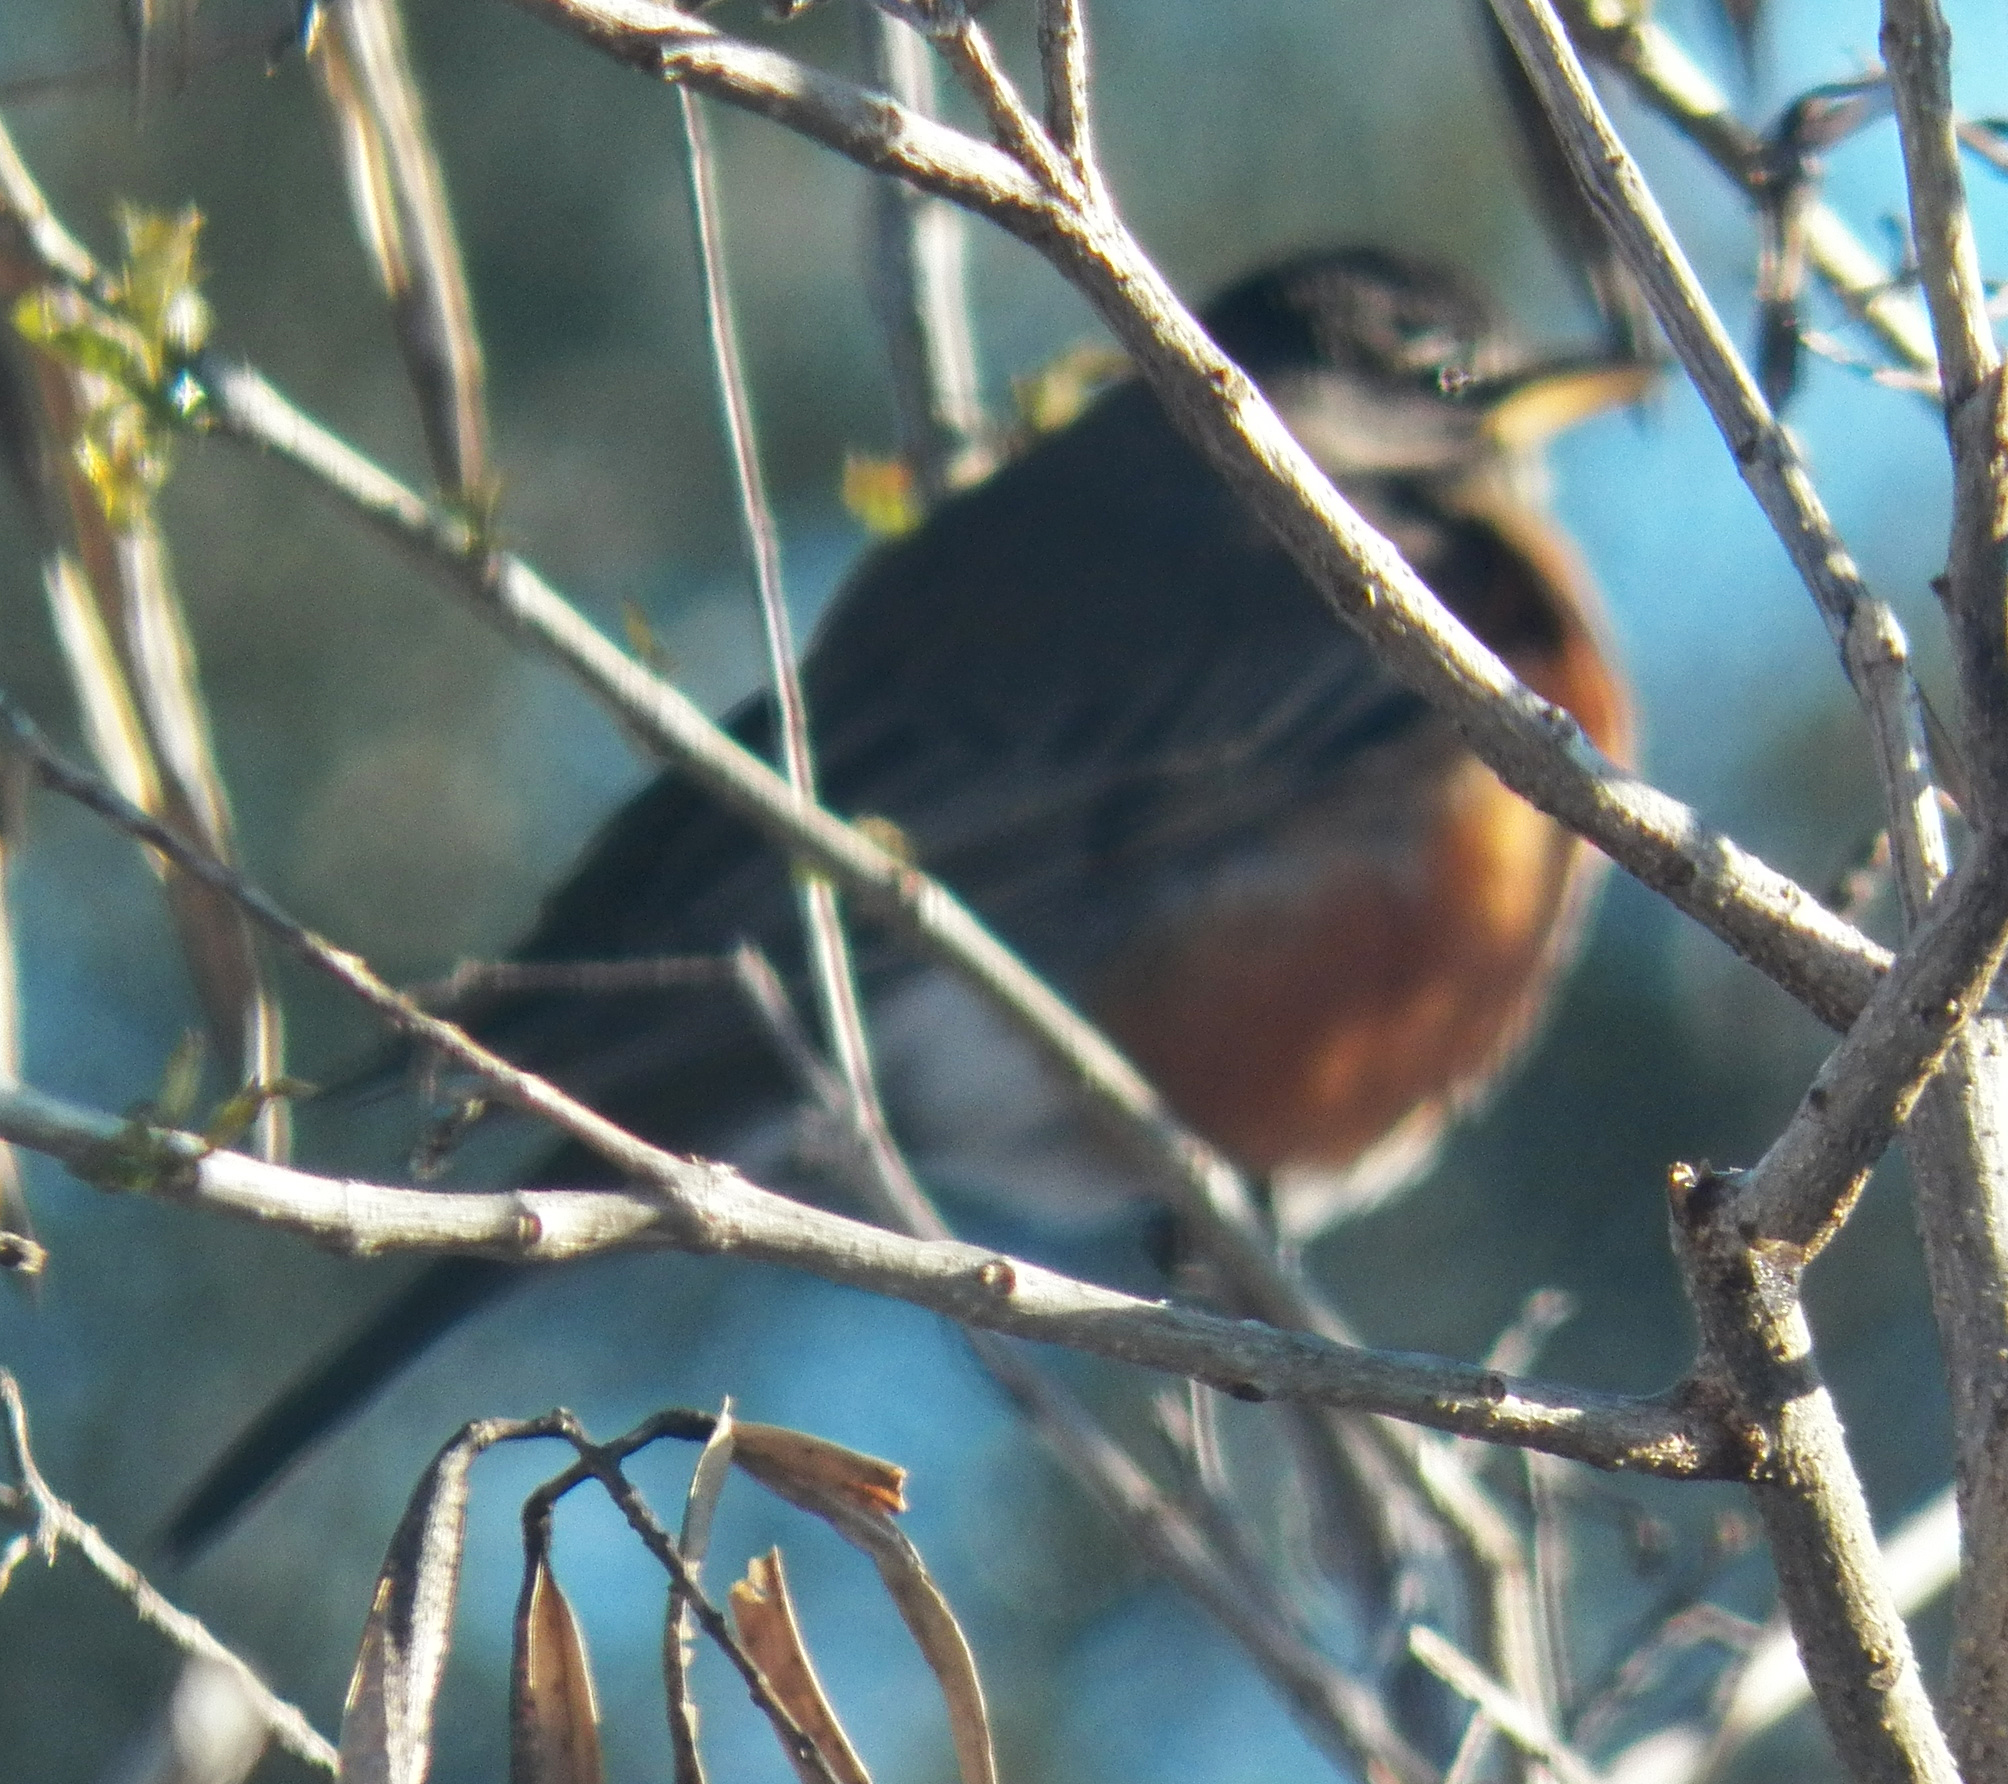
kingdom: Animalia
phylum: Chordata
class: Aves
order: Passeriformes
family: Turdidae
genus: Turdus
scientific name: Turdus migratorius
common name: American robin
